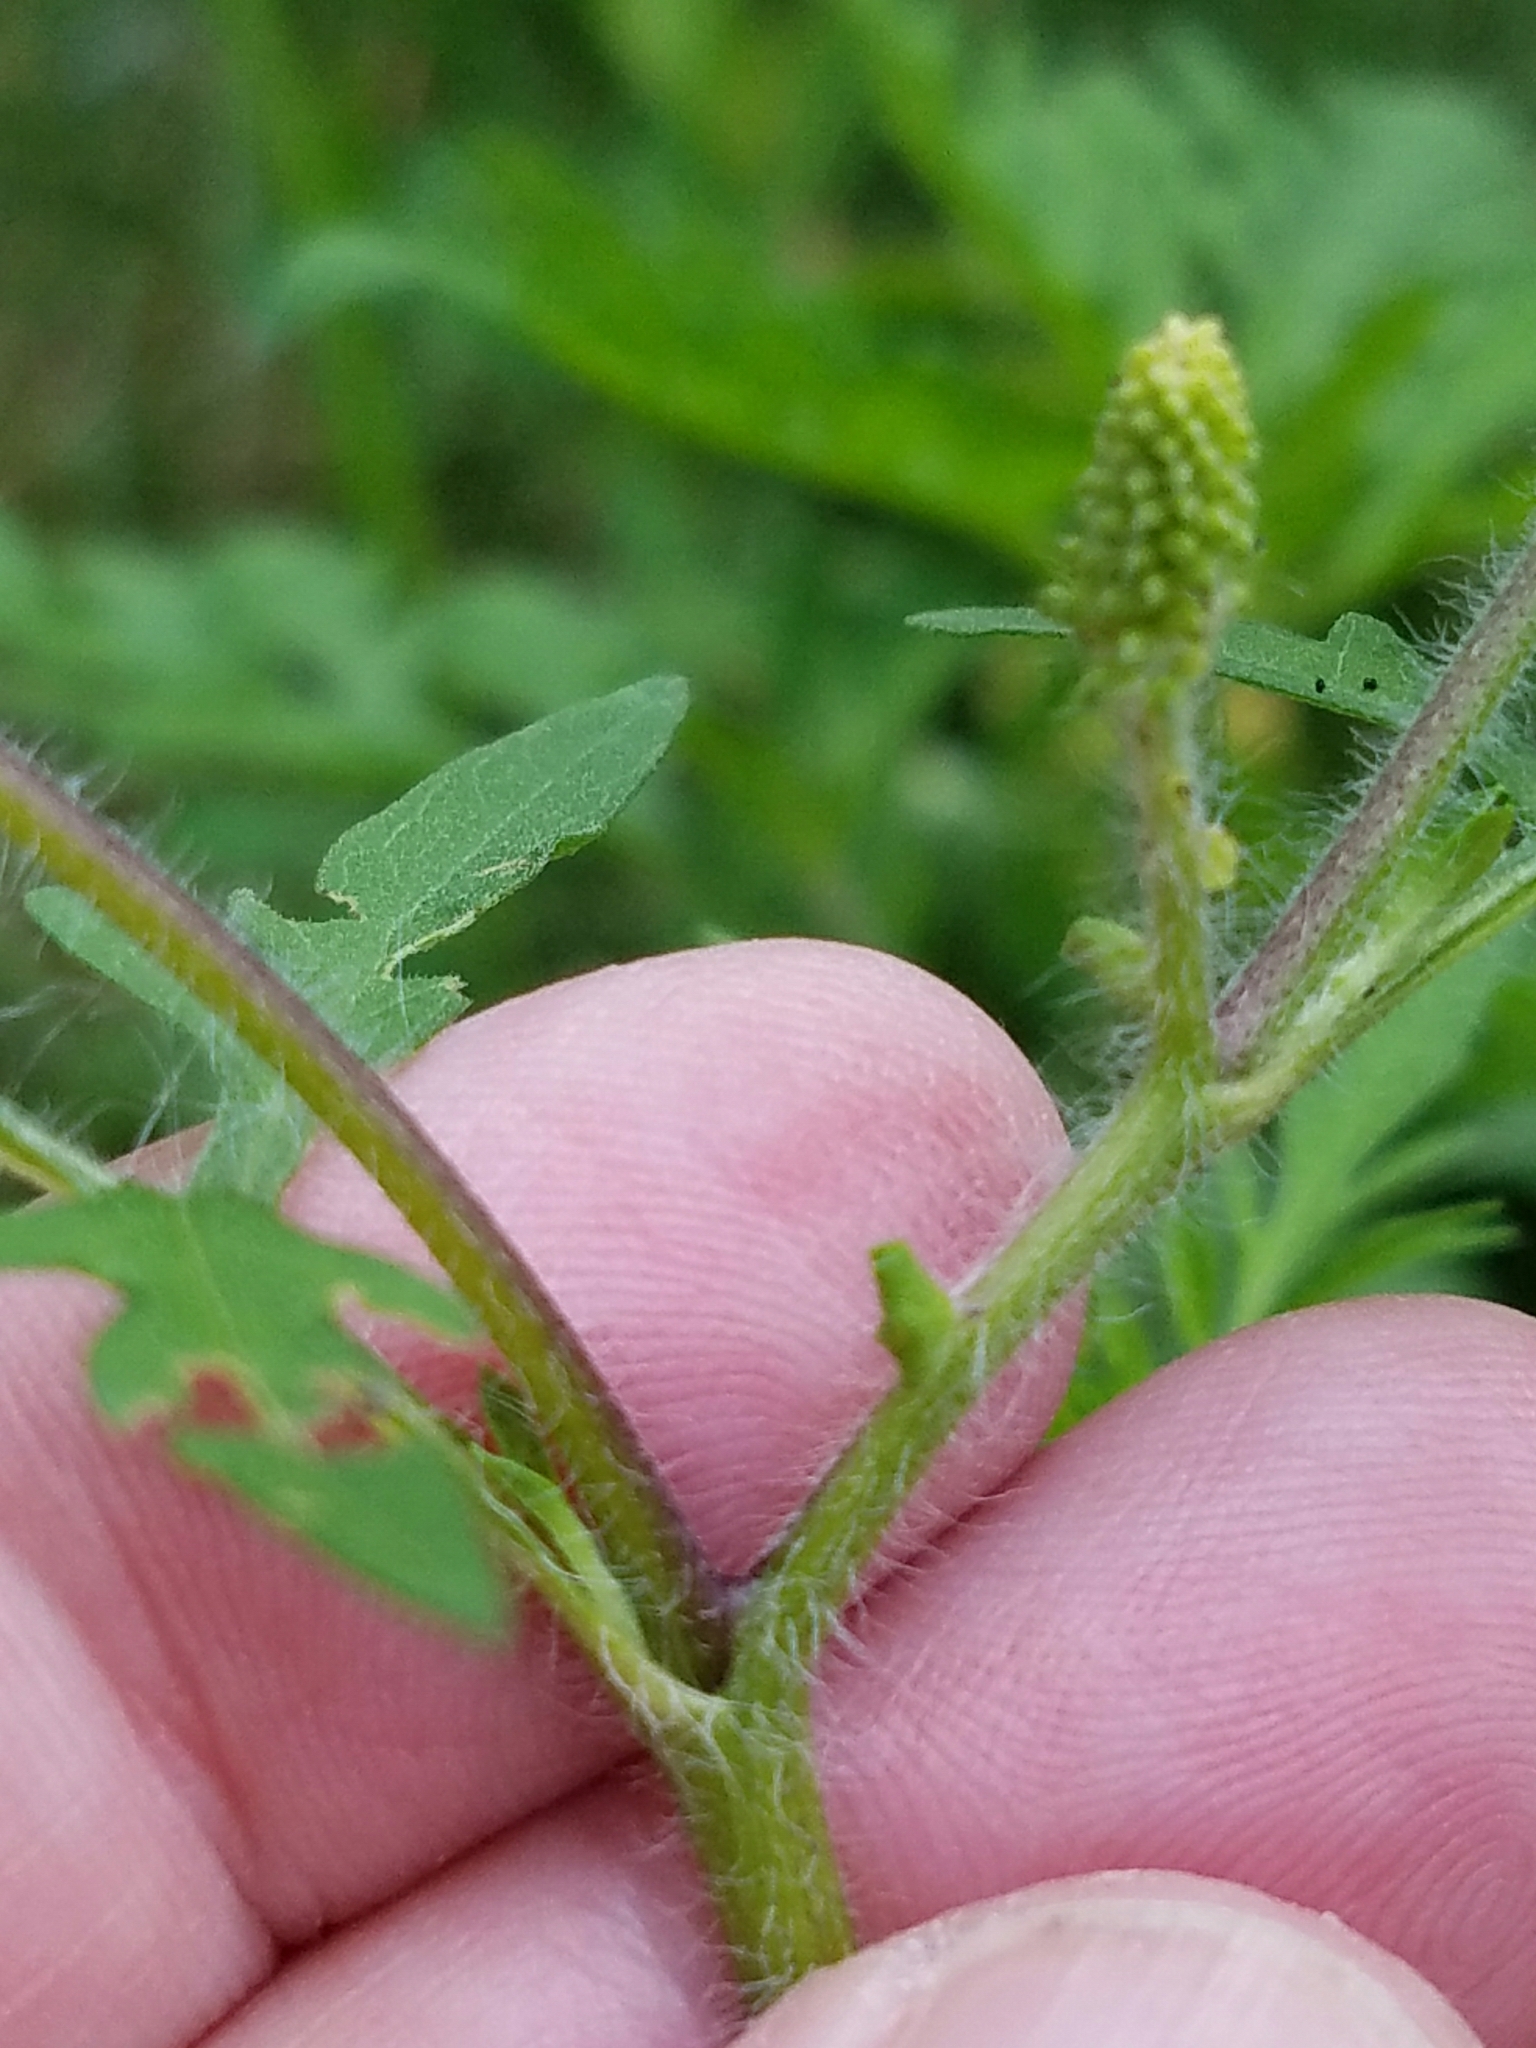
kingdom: Plantae
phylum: Tracheophyta
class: Magnoliopsida
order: Asterales
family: Asteraceae
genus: Ambrosia
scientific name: Ambrosia artemisiifolia
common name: Annual ragweed
